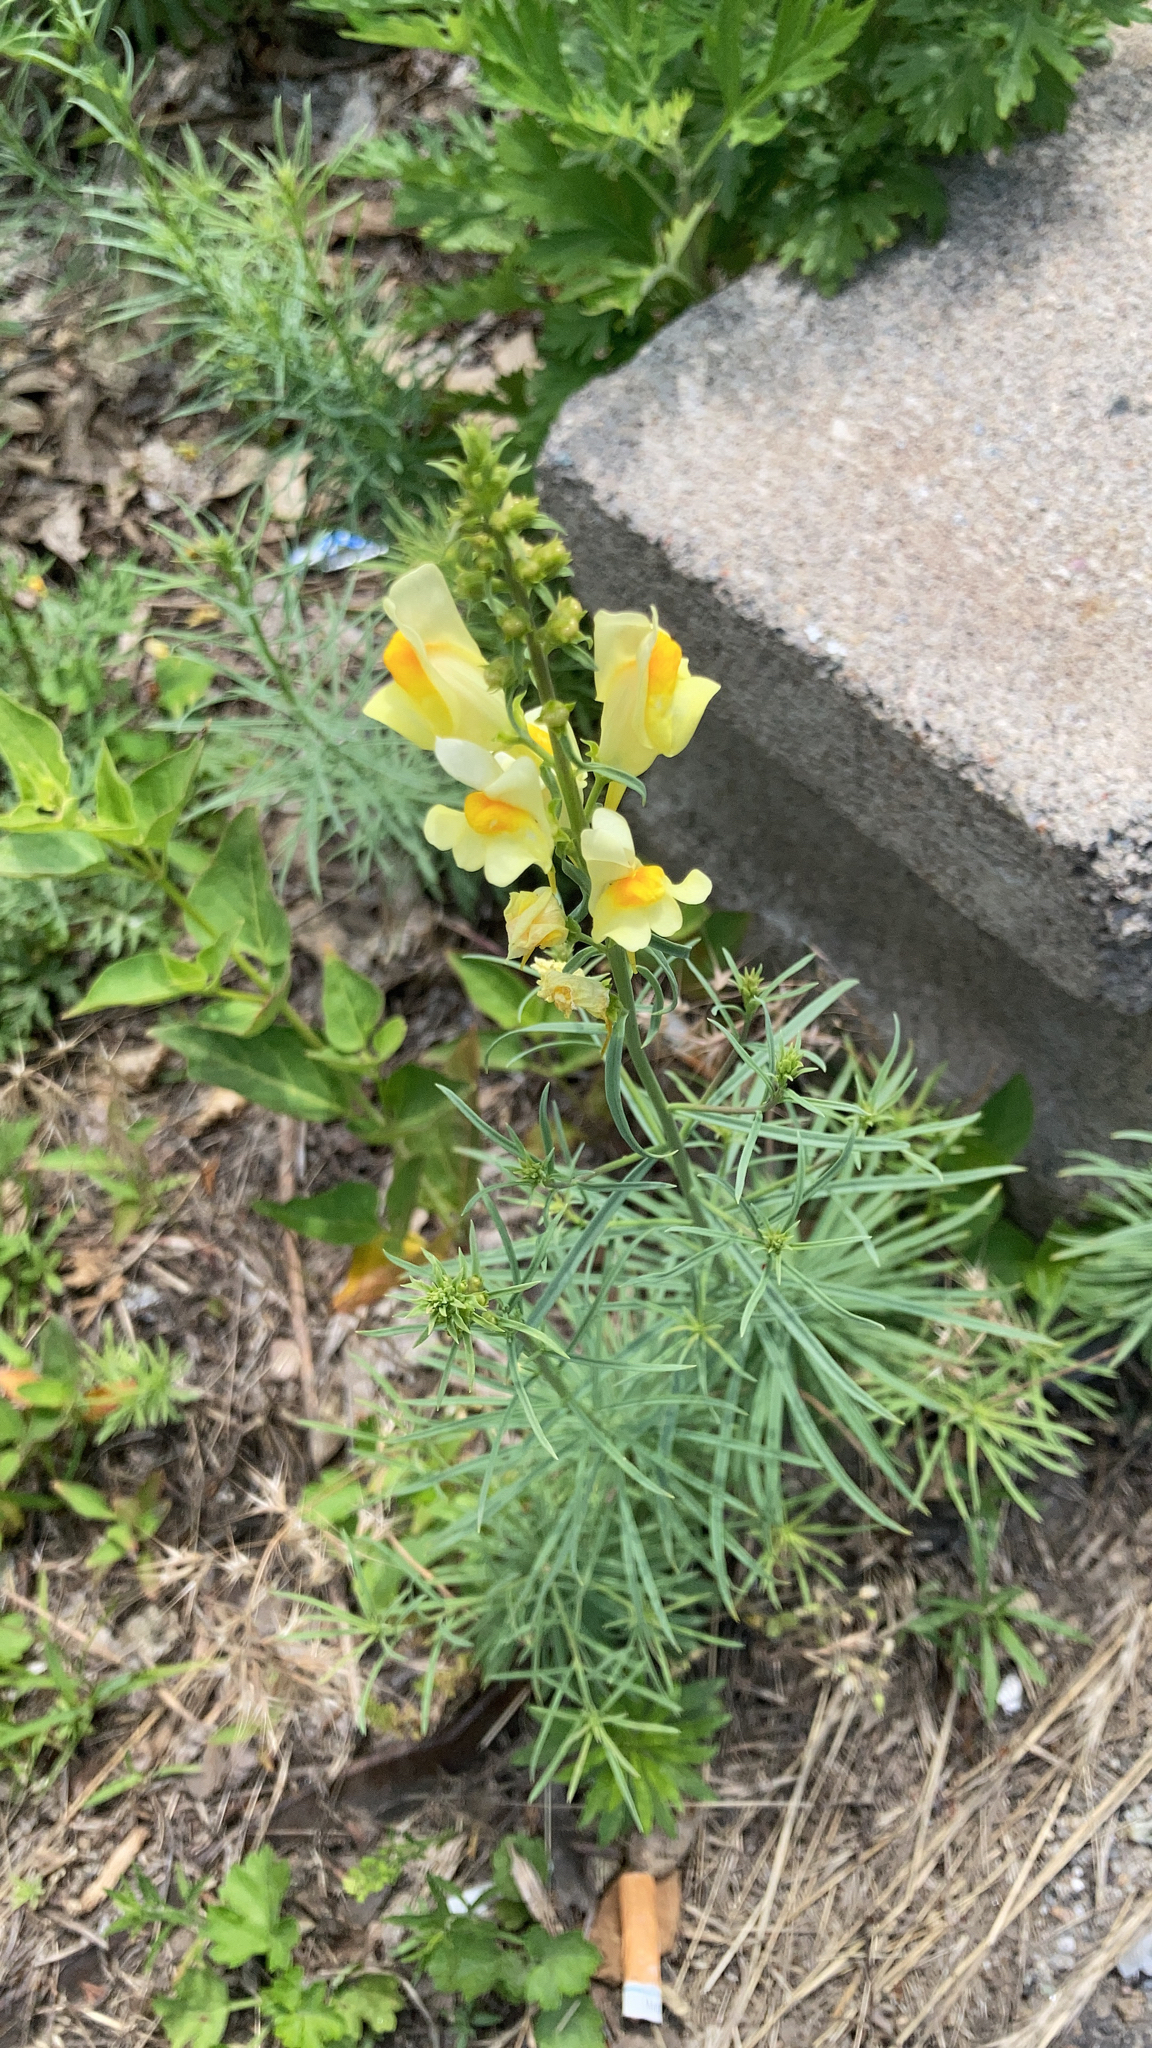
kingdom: Plantae
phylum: Tracheophyta
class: Magnoliopsida
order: Lamiales
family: Plantaginaceae
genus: Linaria
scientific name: Linaria vulgaris
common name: Butter and eggs
